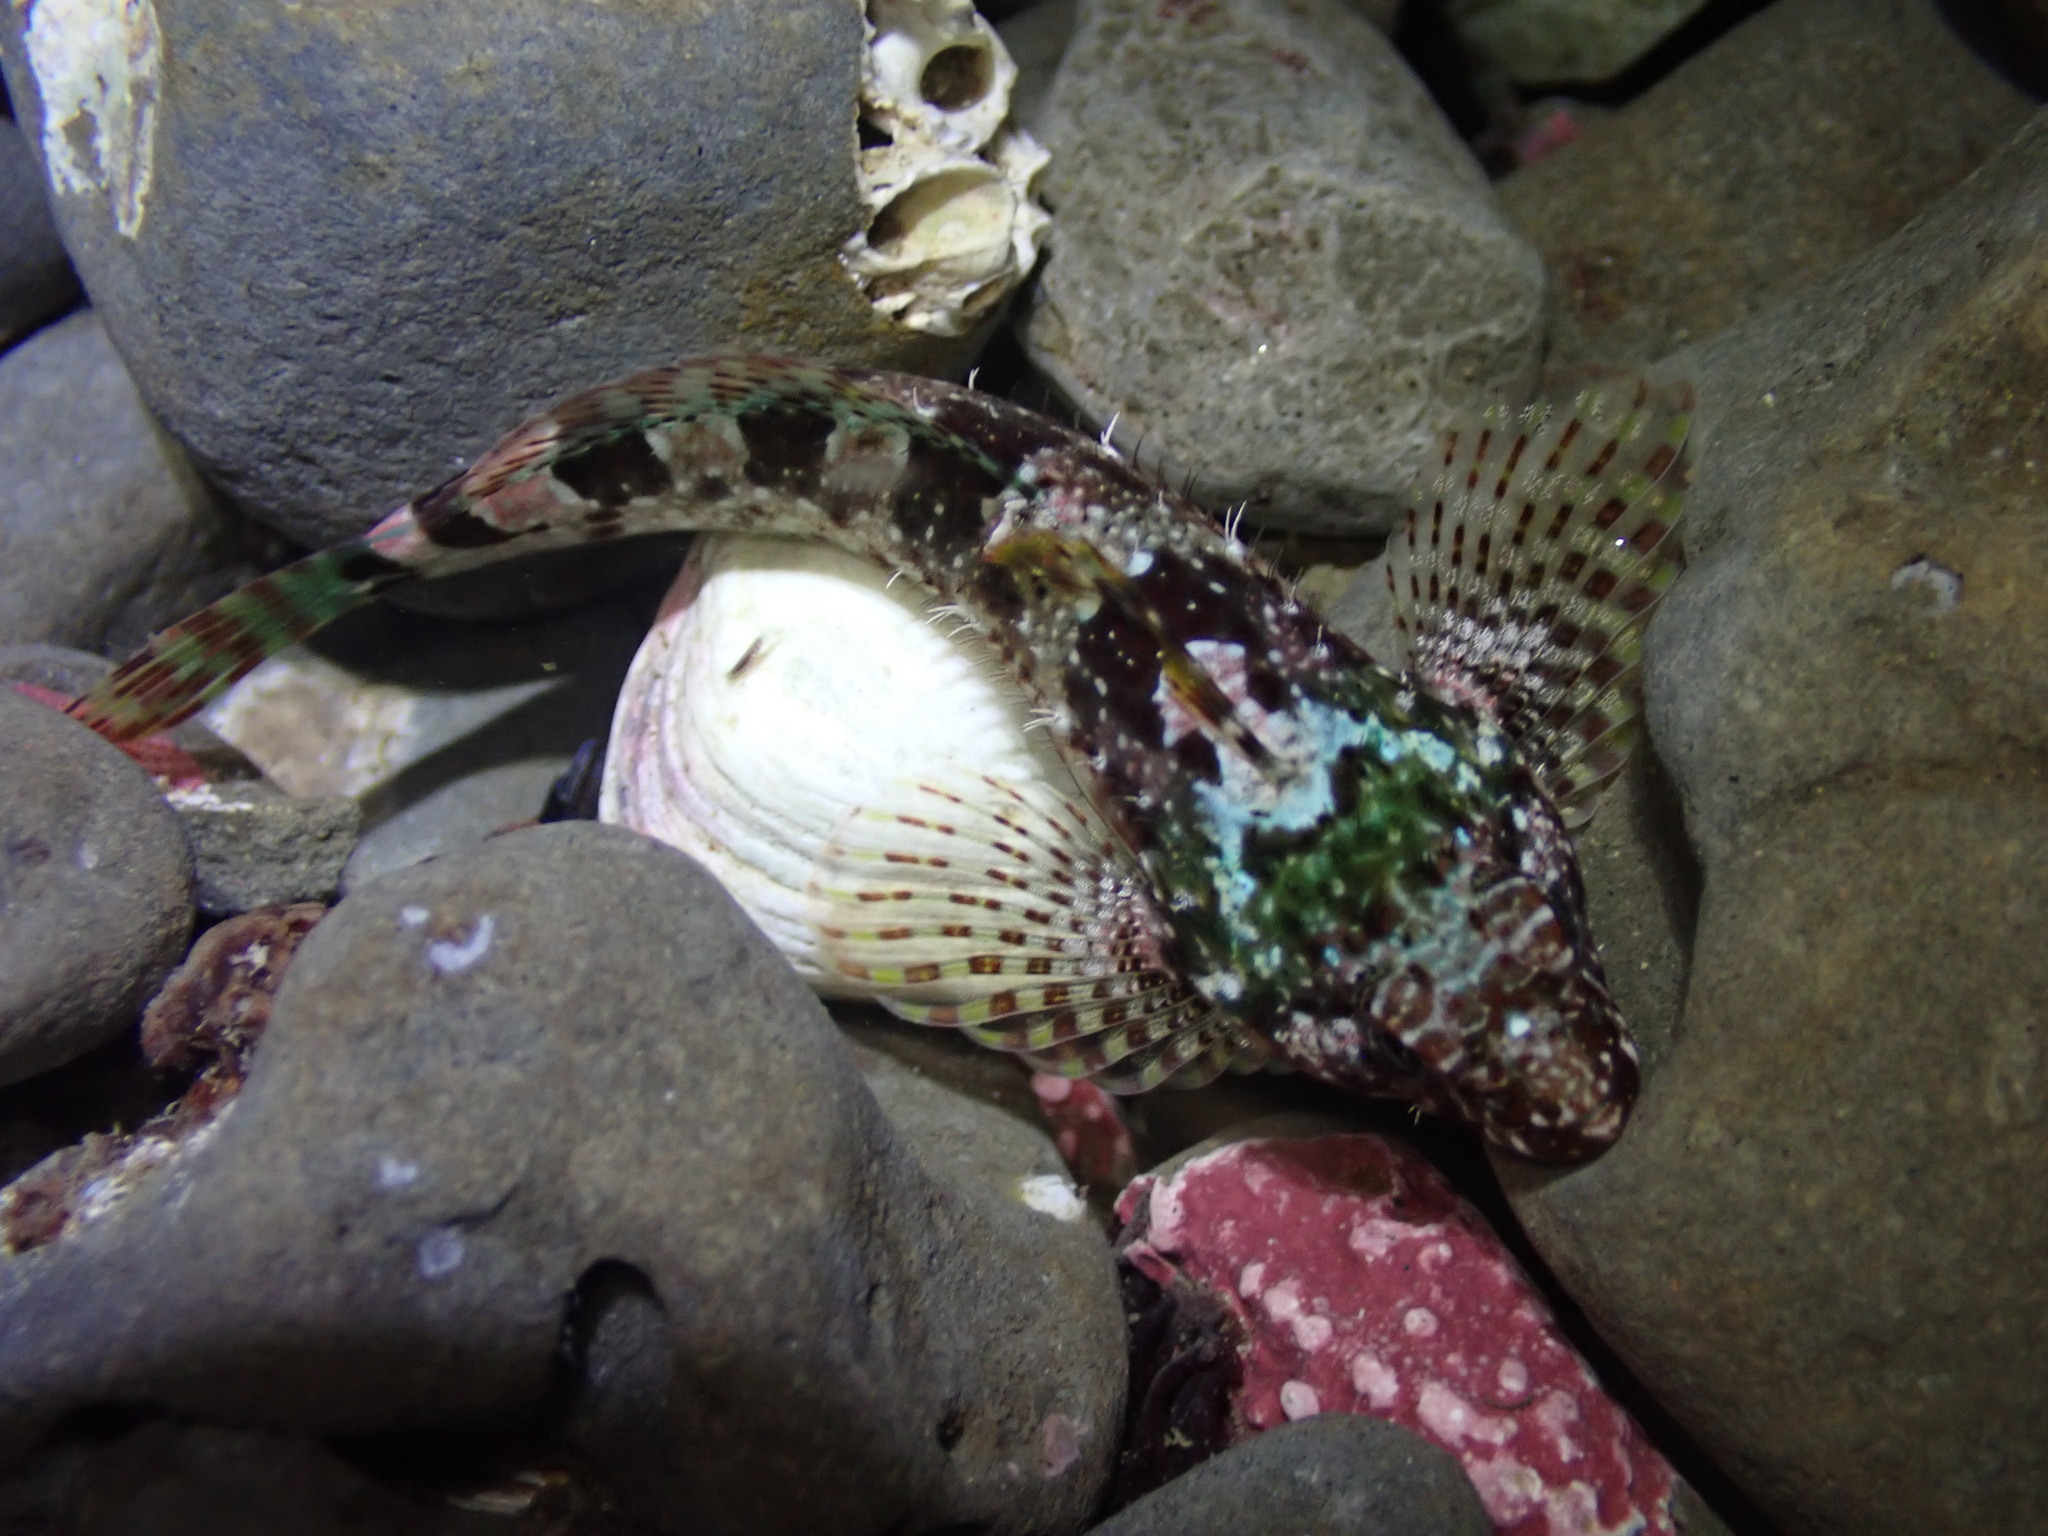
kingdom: Animalia
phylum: Chordata
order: Scorpaeniformes
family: Cottidae
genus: Clinocottus
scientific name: Clinocottus analis
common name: Woolly sculpin
